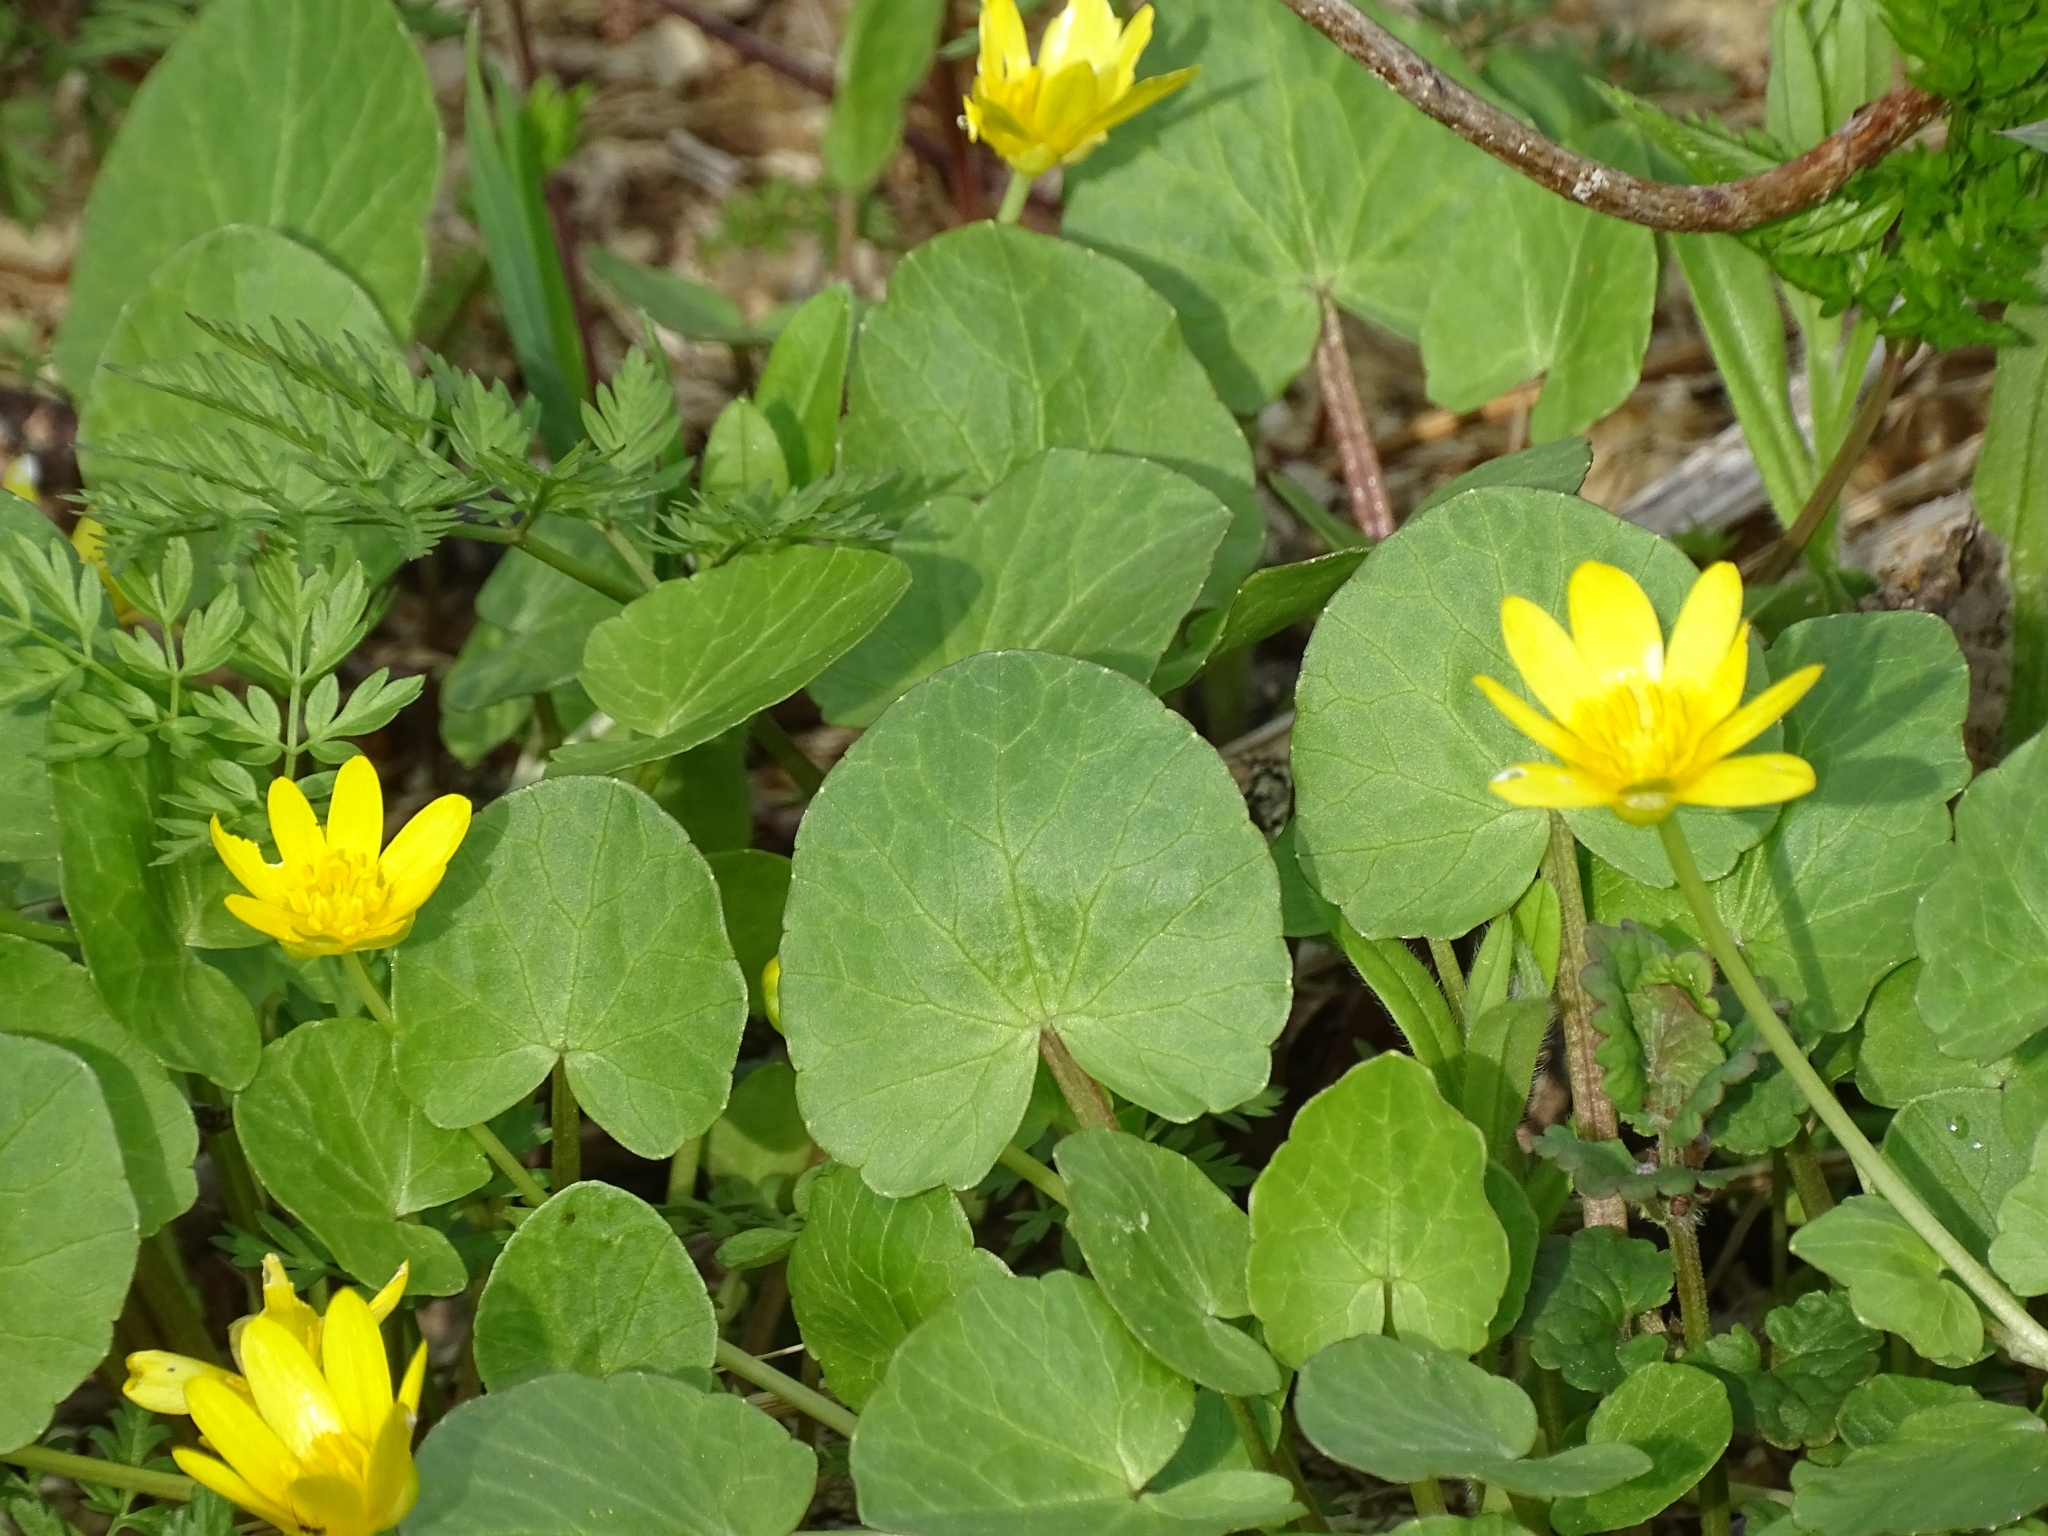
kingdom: Plantae
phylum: Tracheophyta
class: Magnoliopsida
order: Ranunculales
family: Ranunculaceae
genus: Ficaria
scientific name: Ficaria verna
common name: Lesser celandine
